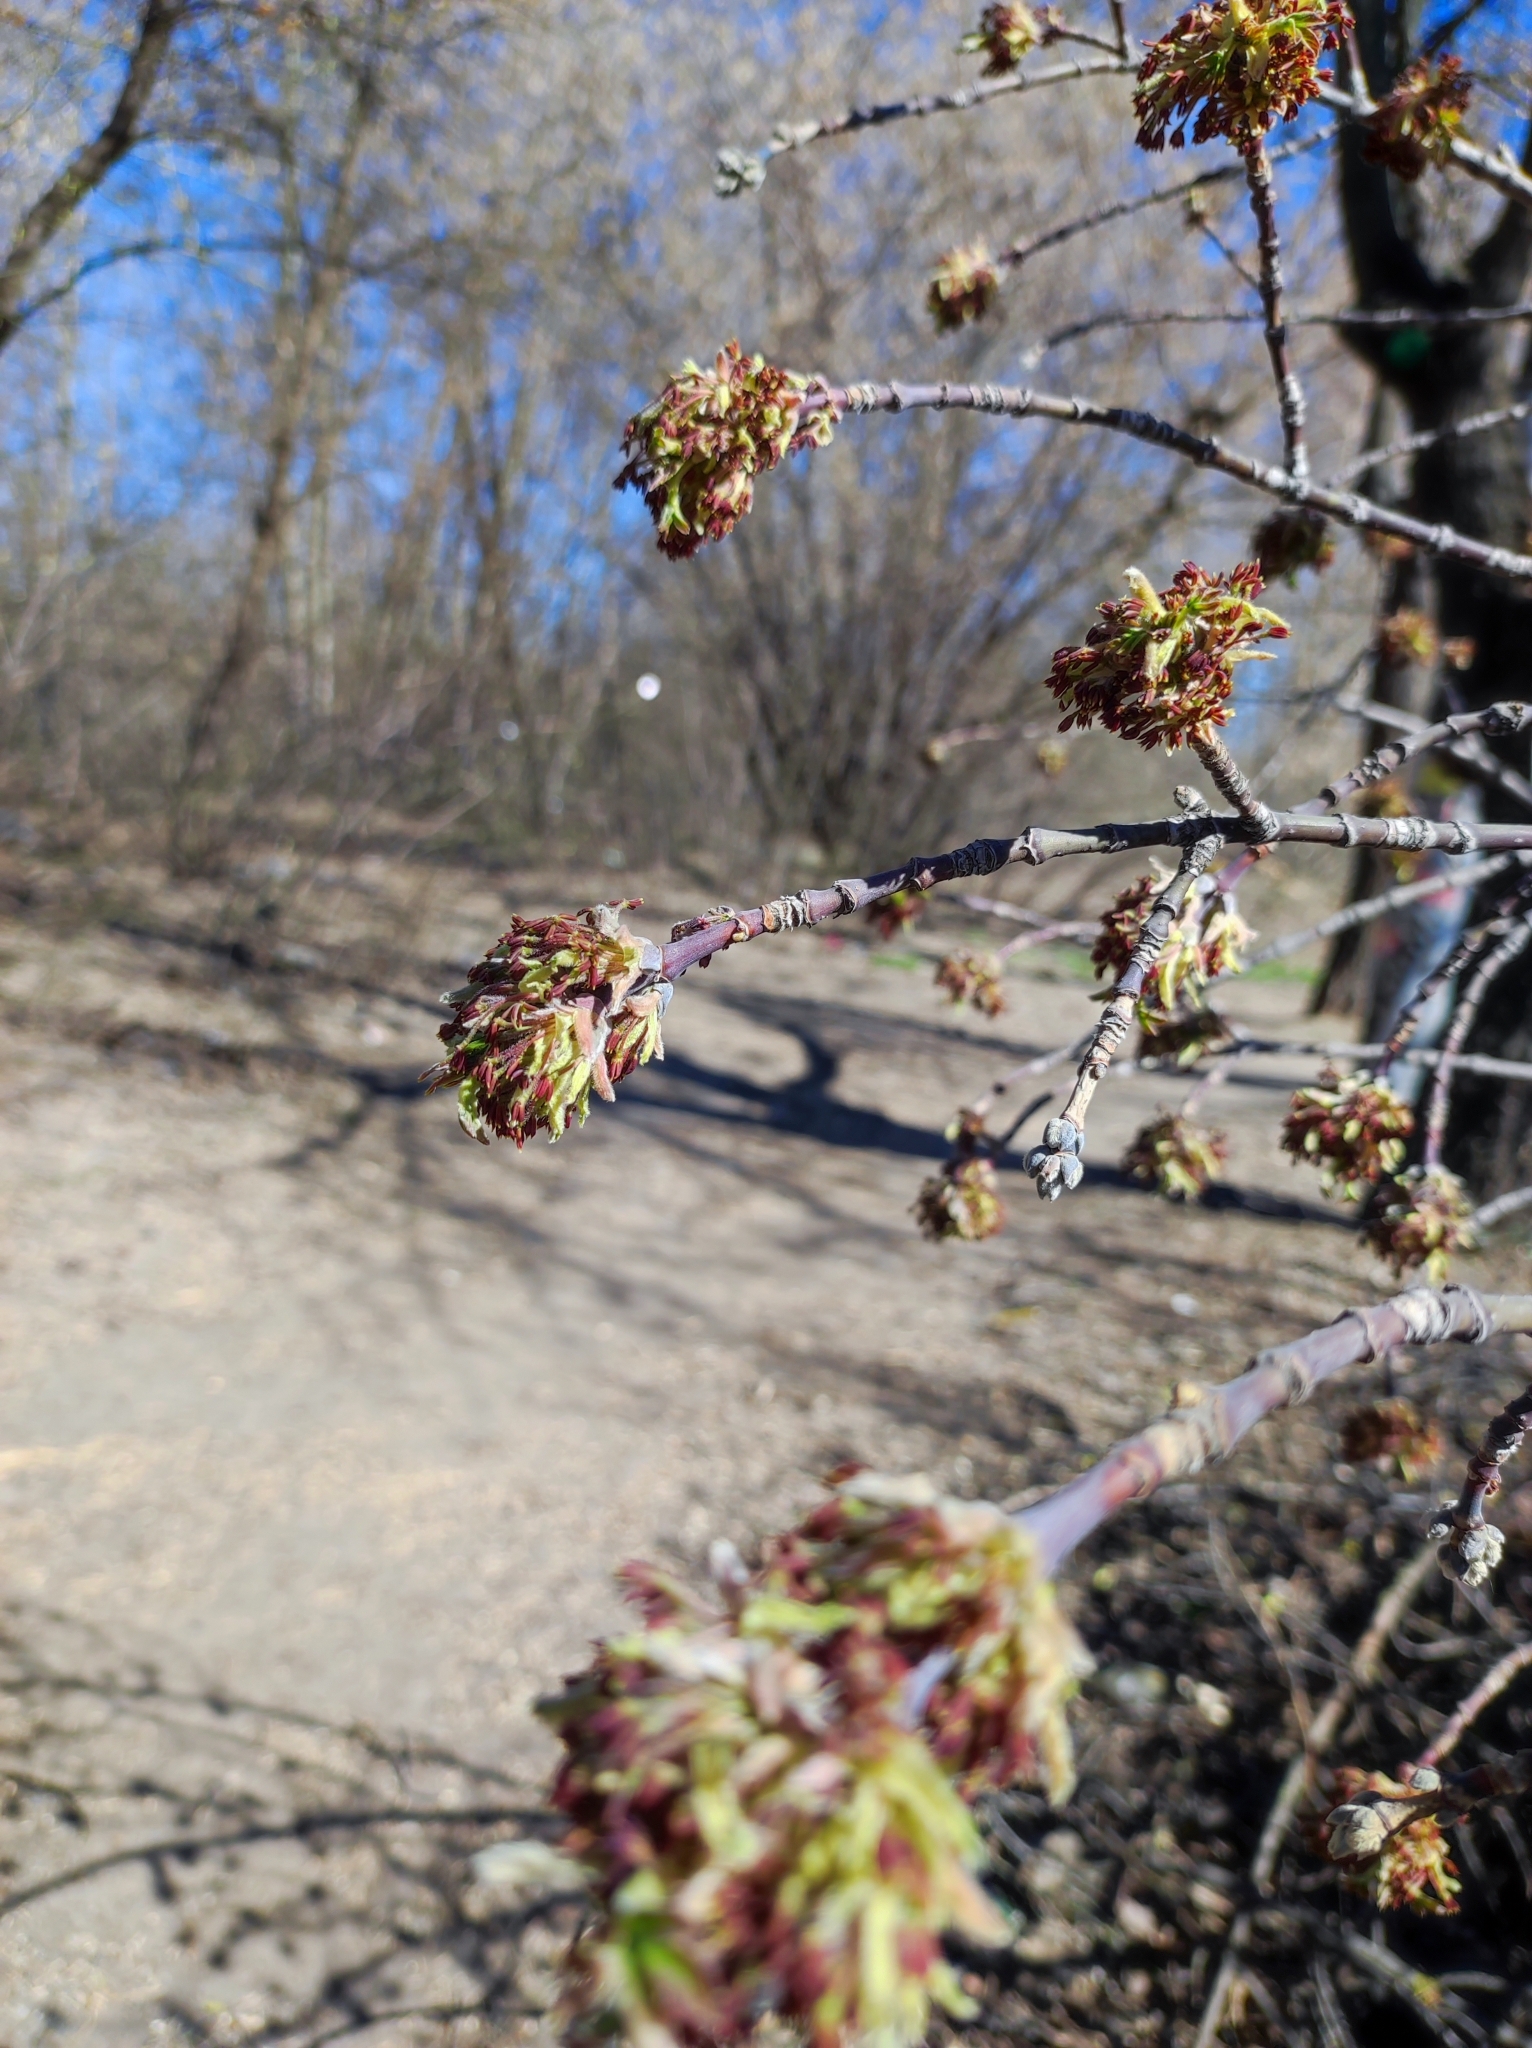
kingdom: Plantae
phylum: Tracheophyta
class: Magnoliopsida
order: Sapindales
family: Sapindaceae
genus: Acer
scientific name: Acer negundo
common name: Ashleaf maple
